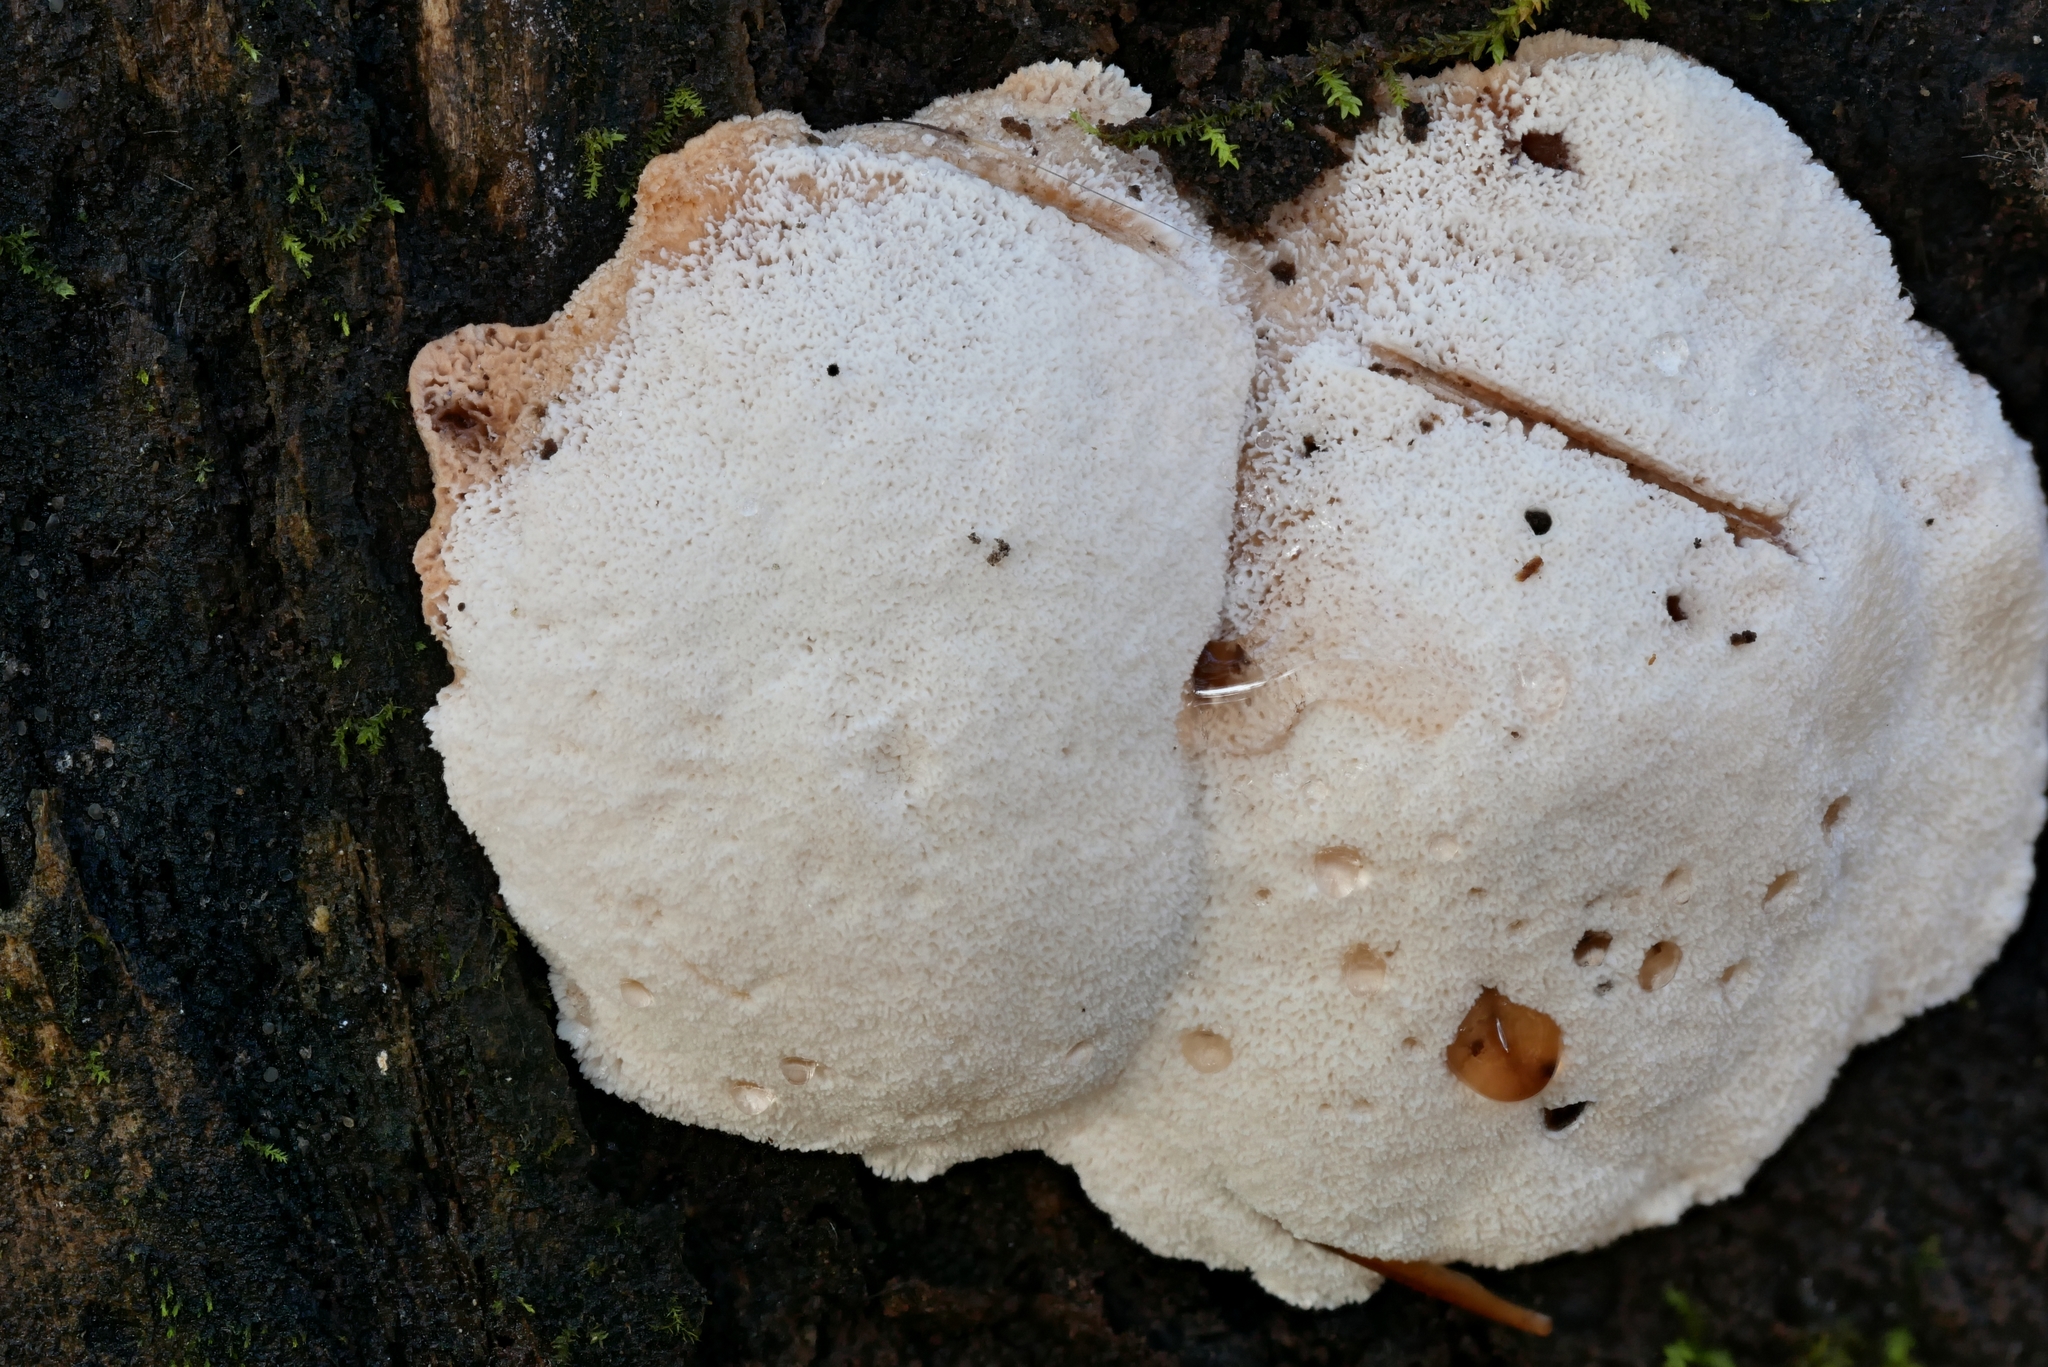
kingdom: Fungi
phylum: Basidiomycota
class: Agaricomycetes
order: Polyporales
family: Podoscyphaceae
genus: Abortiporus
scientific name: Abortiporus biennis
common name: Blushing rosette
